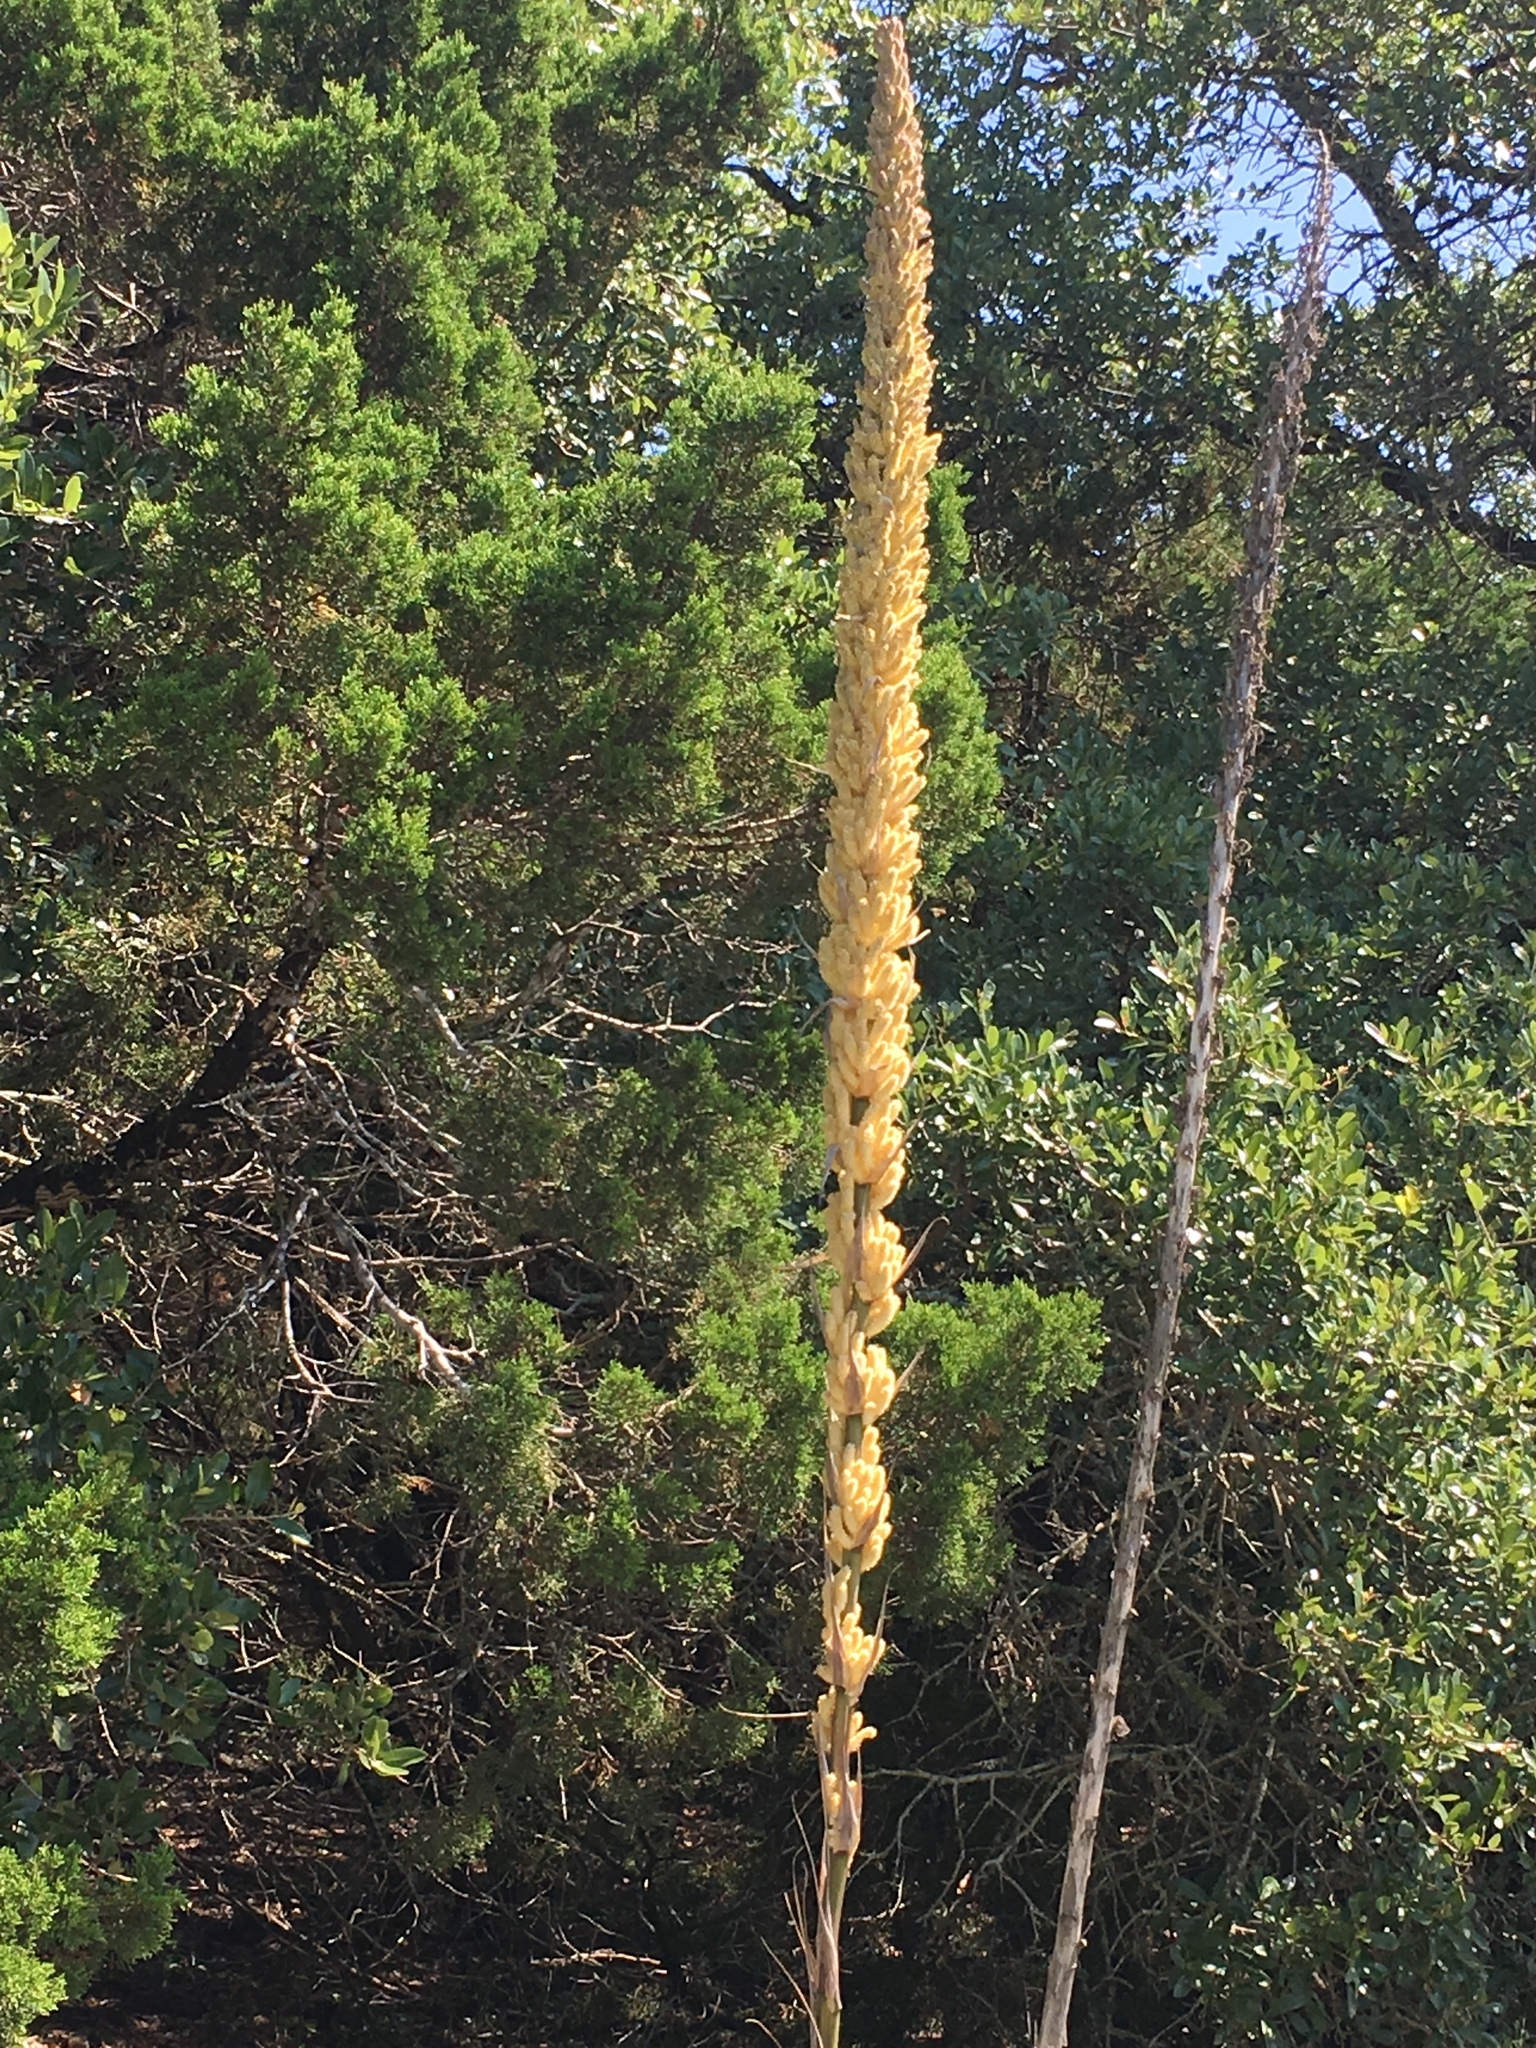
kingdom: Plantae
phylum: Tracheophyta
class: Liliopsida
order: Asparagales
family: Asparagaceae
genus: Dasylirion
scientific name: Dasylirion texanum
